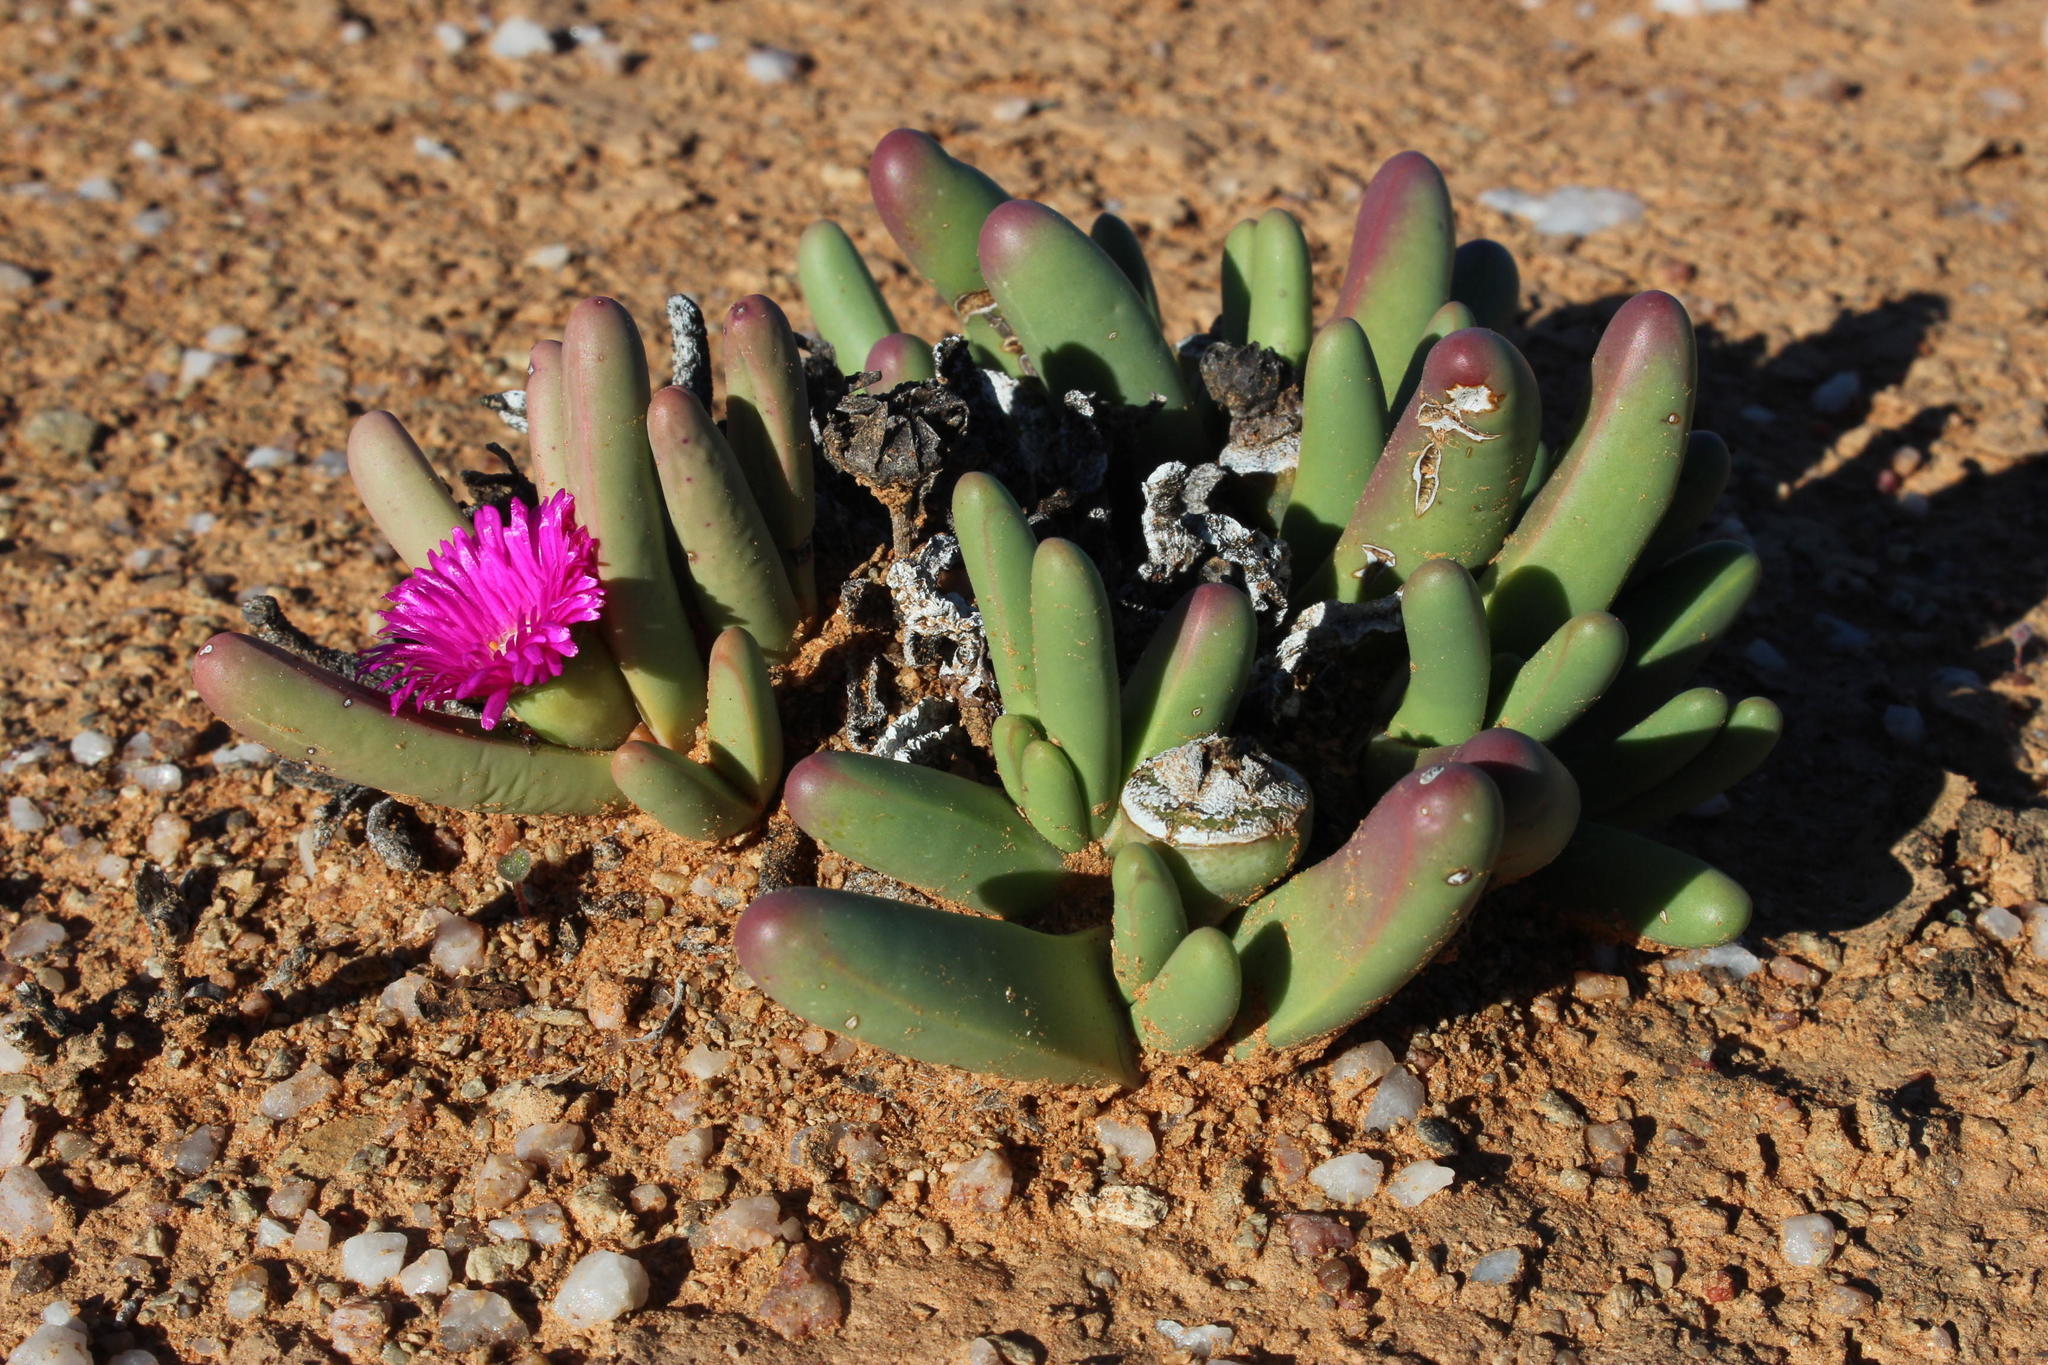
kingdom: Plantae
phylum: Tracheophyta
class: Magnoliopsida
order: Caryophyllales
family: Aizoaceae
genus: Argyroderma
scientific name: Argyroderma fissum
